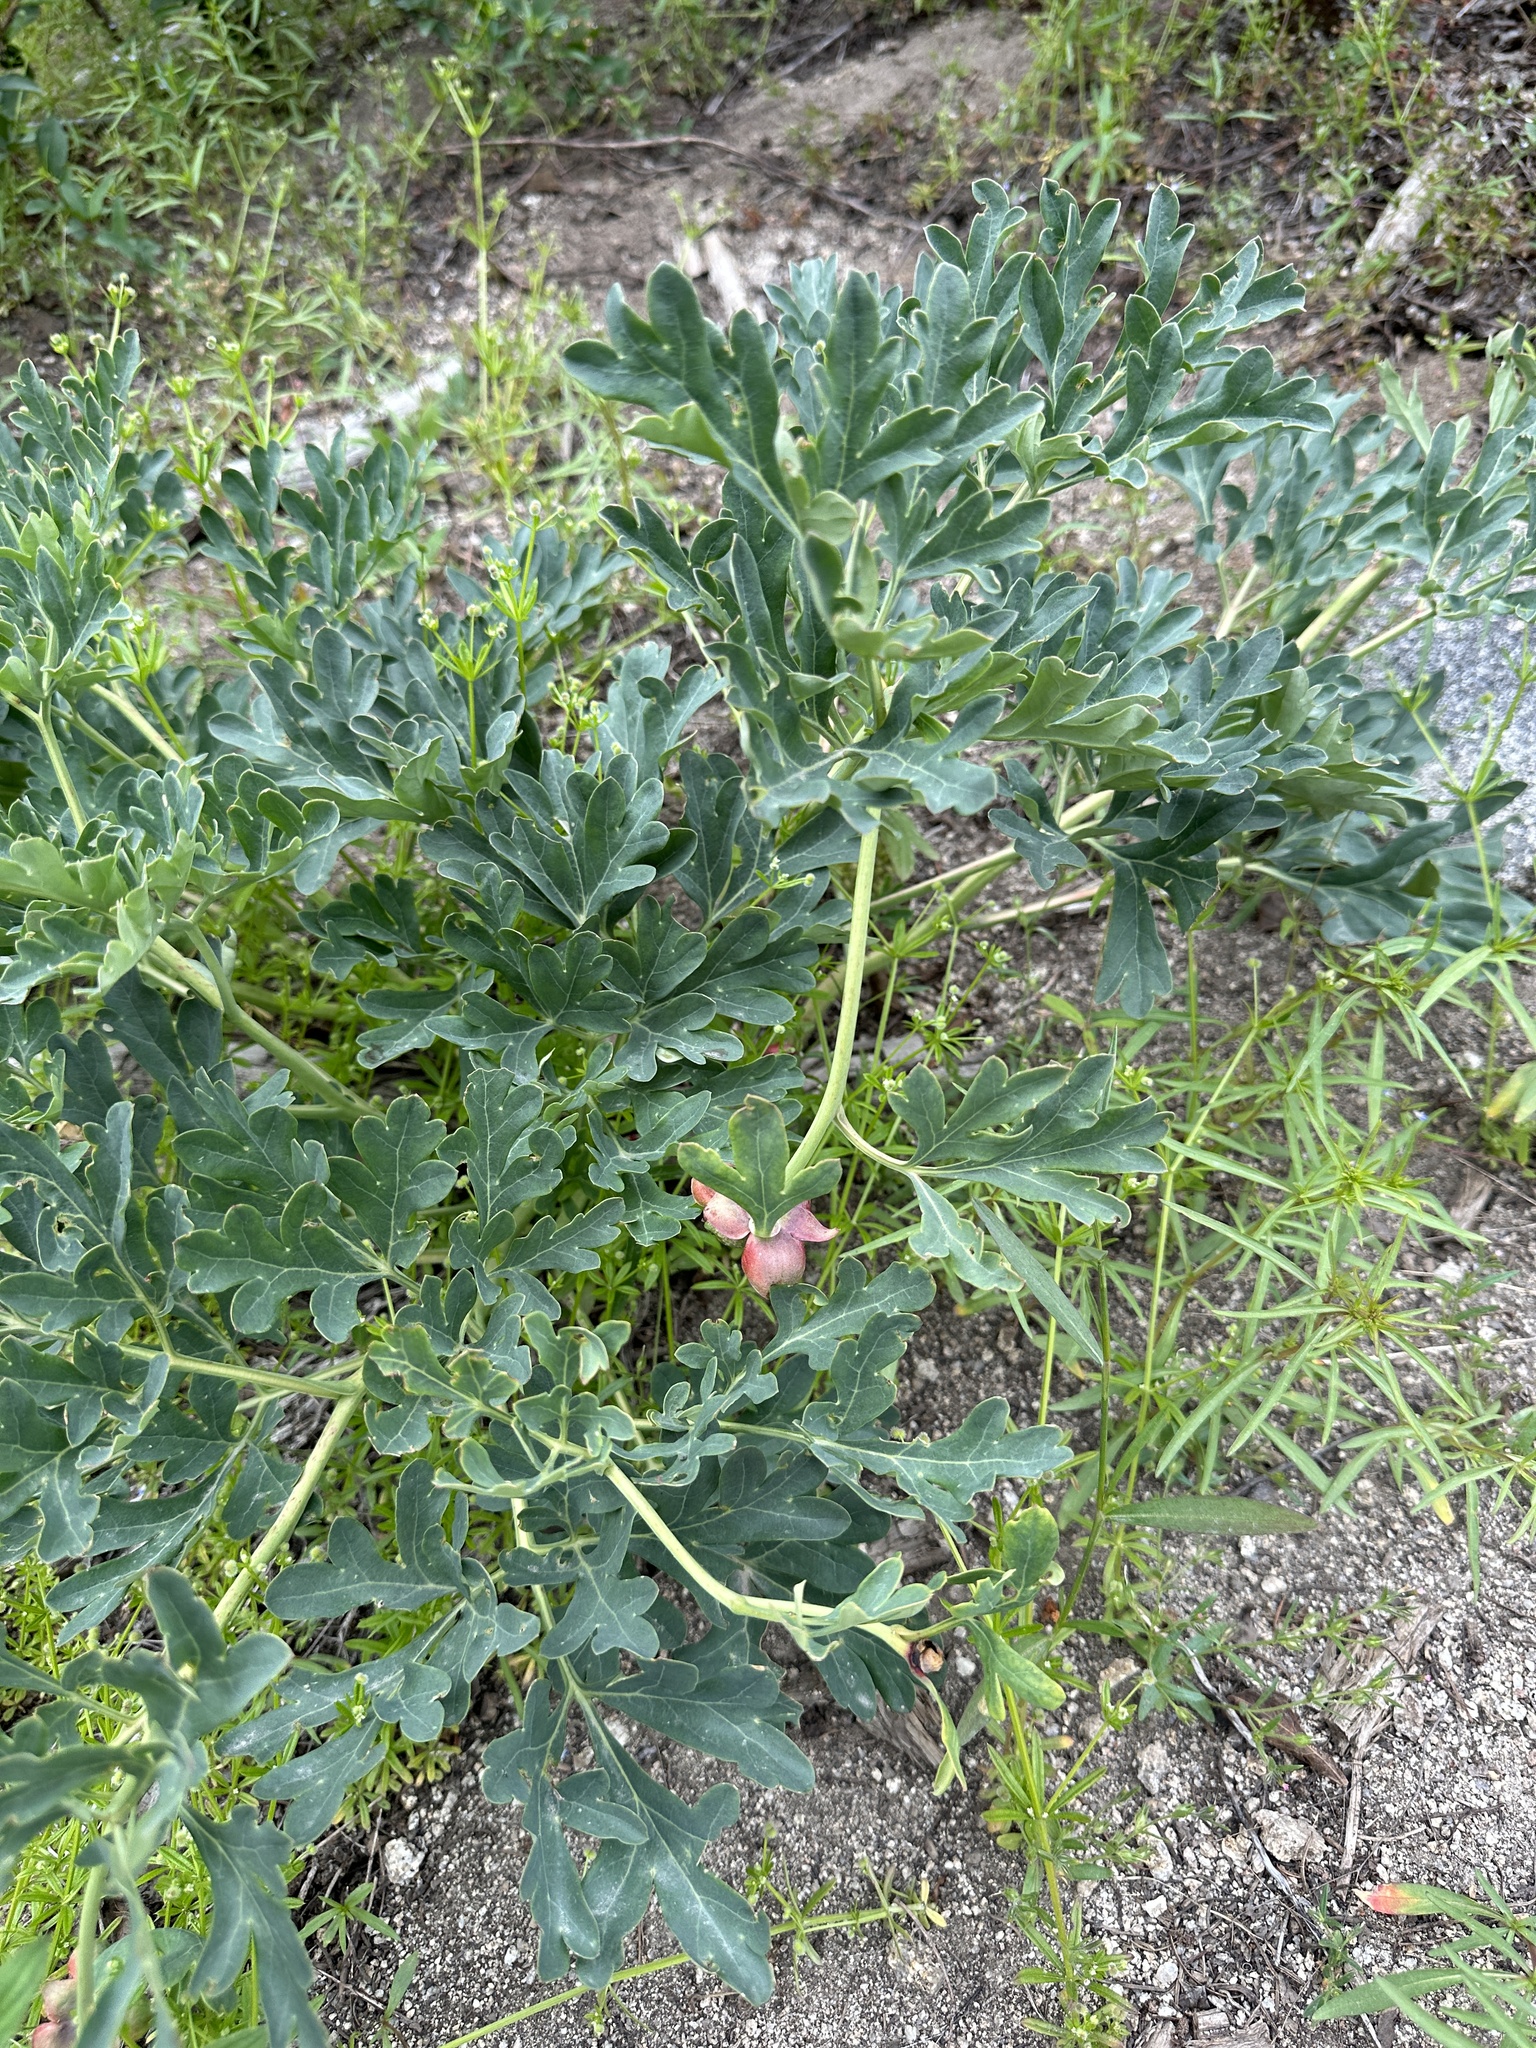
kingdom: Plantae
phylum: Tracheophyta
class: Magnoliopsida
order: Saxifragales
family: Paeoniaceae
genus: Paeonia
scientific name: Paeonia brownii
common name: Brown's peony
